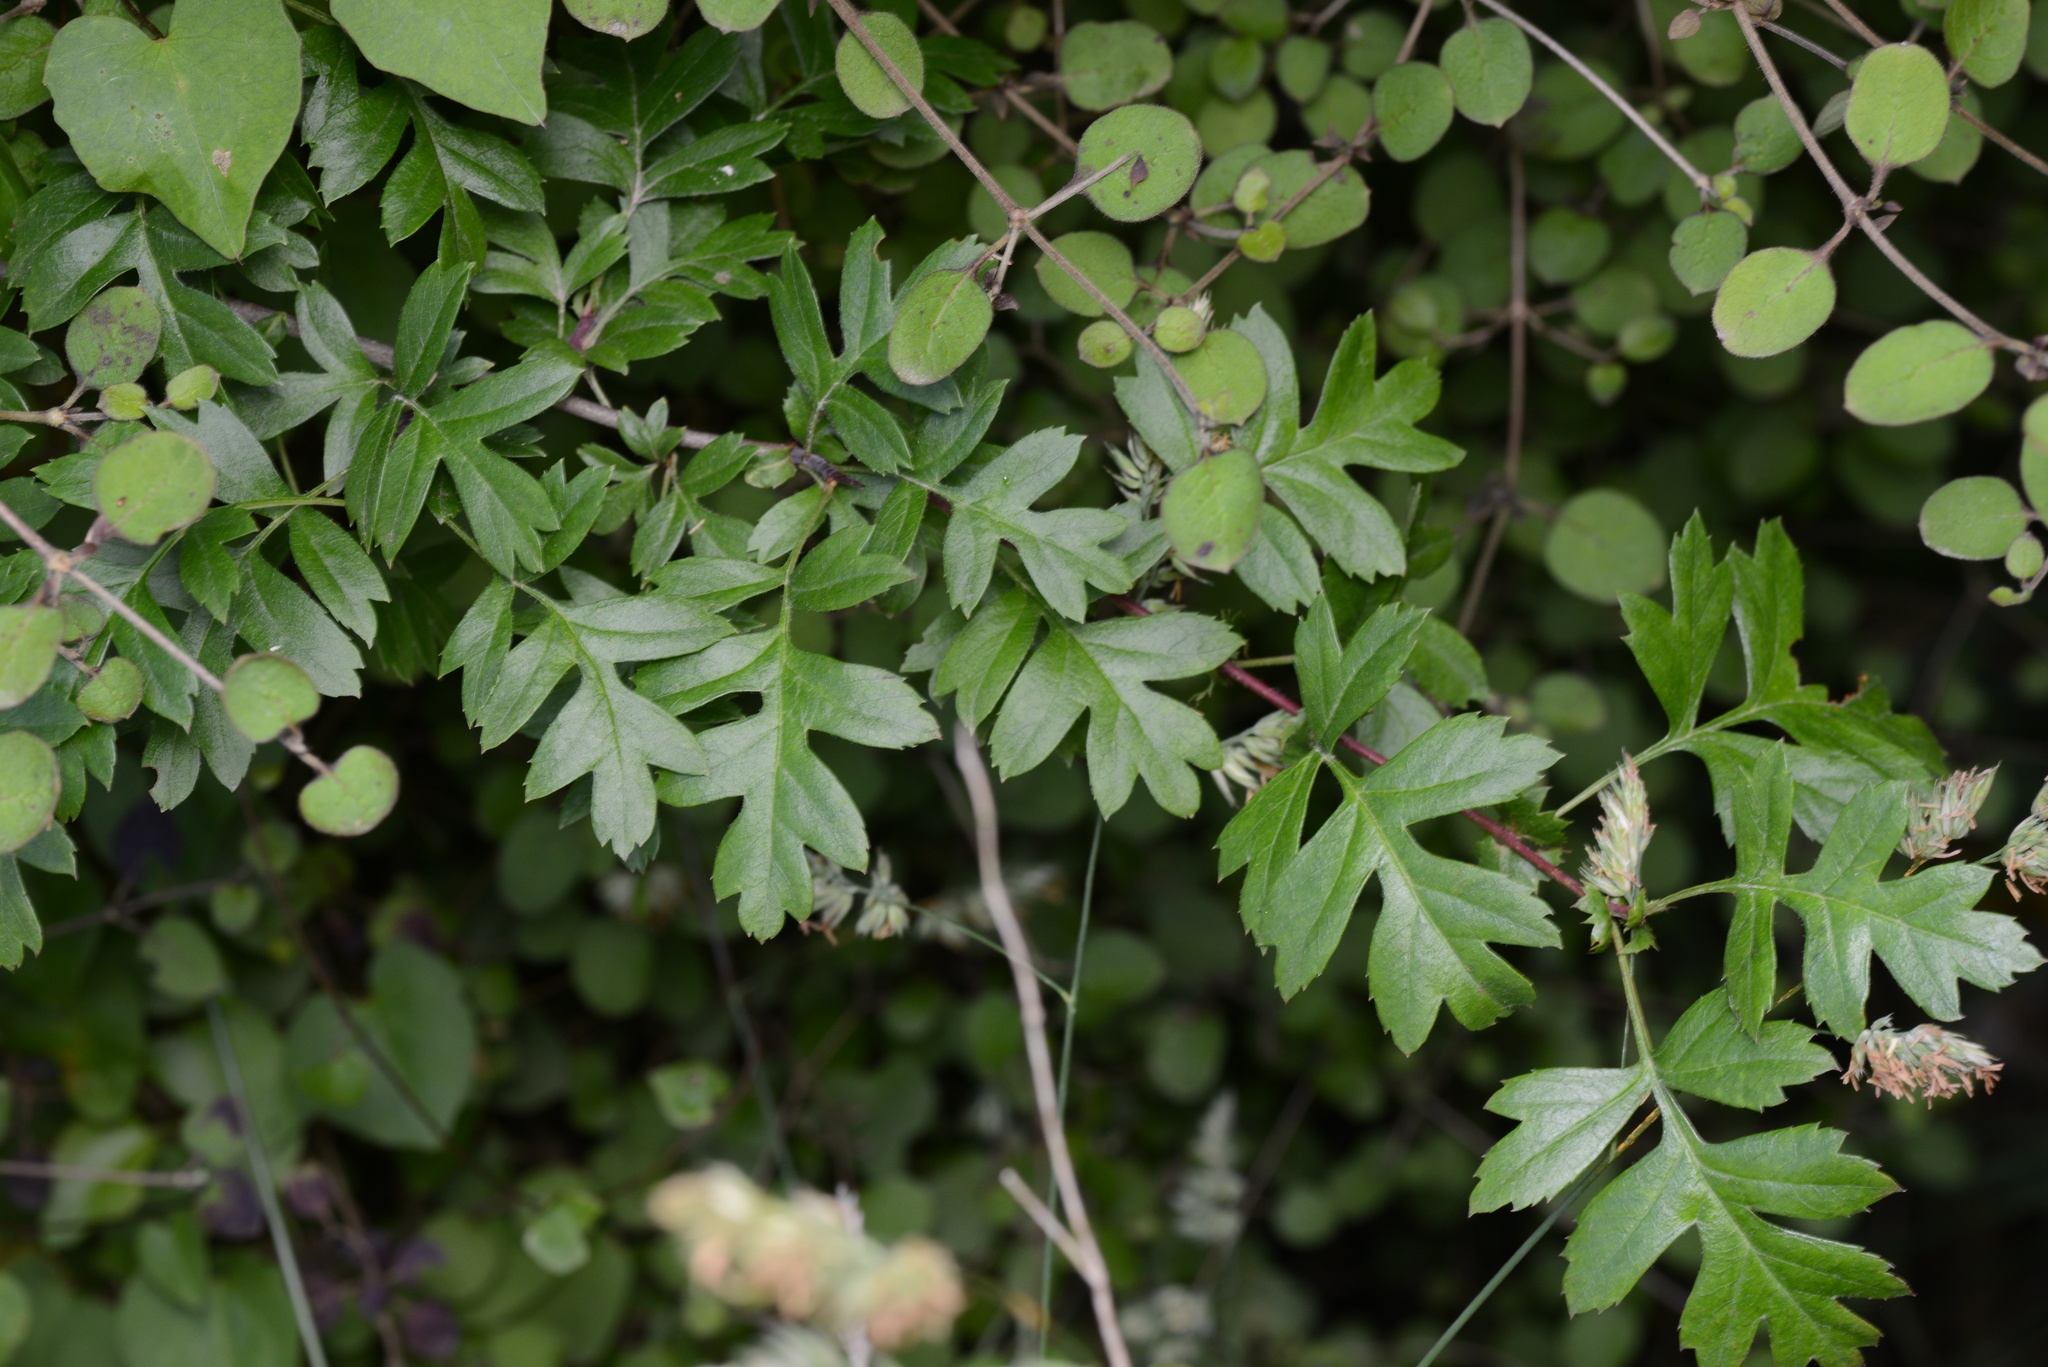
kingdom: Plantae
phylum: Tracheophyta
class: Magnoliopsida
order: Rosales
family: Rosaceae
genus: Crataegus
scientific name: Crataegus monogyna
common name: Hawthorn
